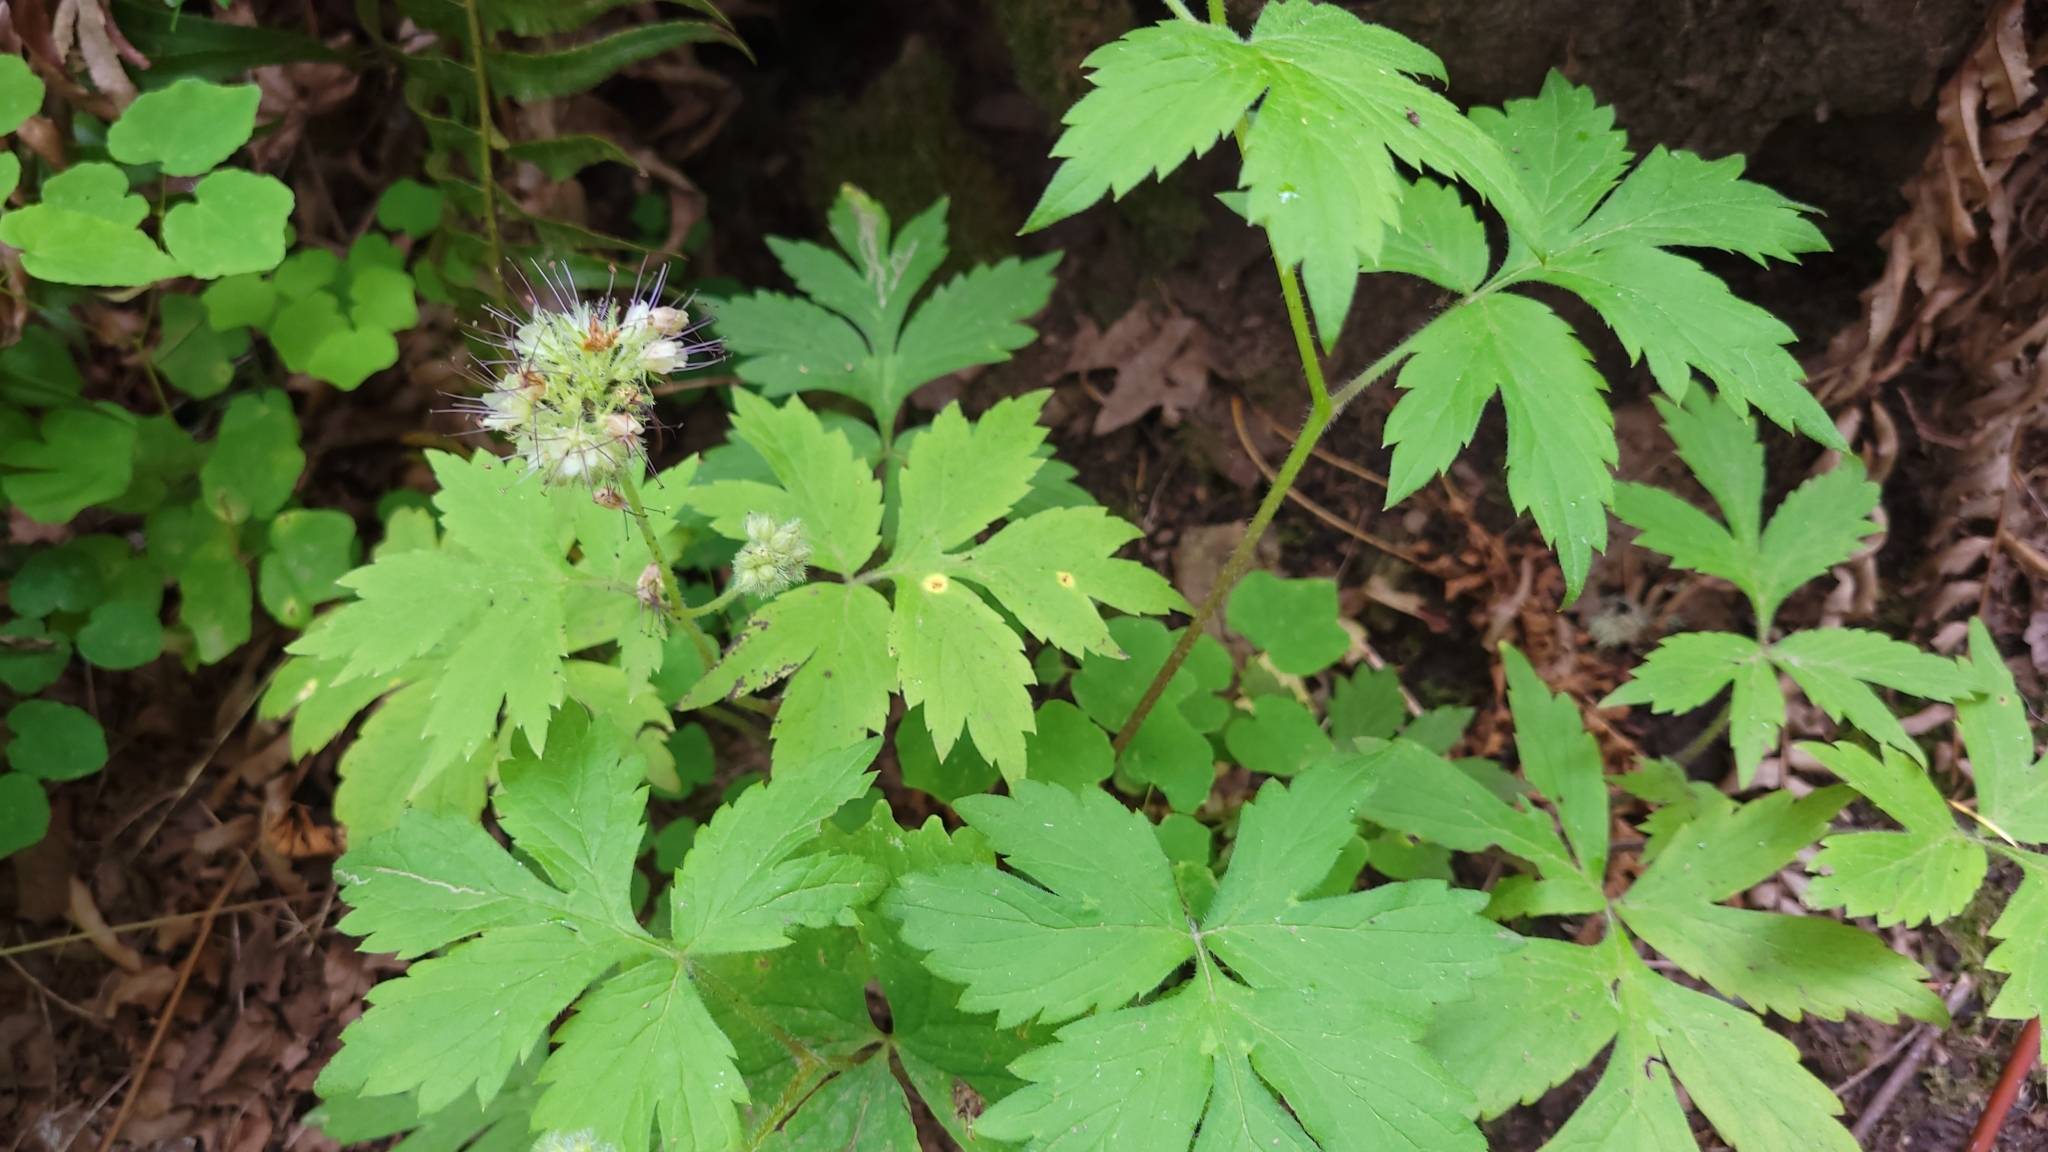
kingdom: Plantae
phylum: Tracheophyta
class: Magnoliopsida
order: Boraginales
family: Hydrophyllaceae
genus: Hydrophyllum
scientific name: Hydrophyllum tenuipes
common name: Pacific waterleaf
